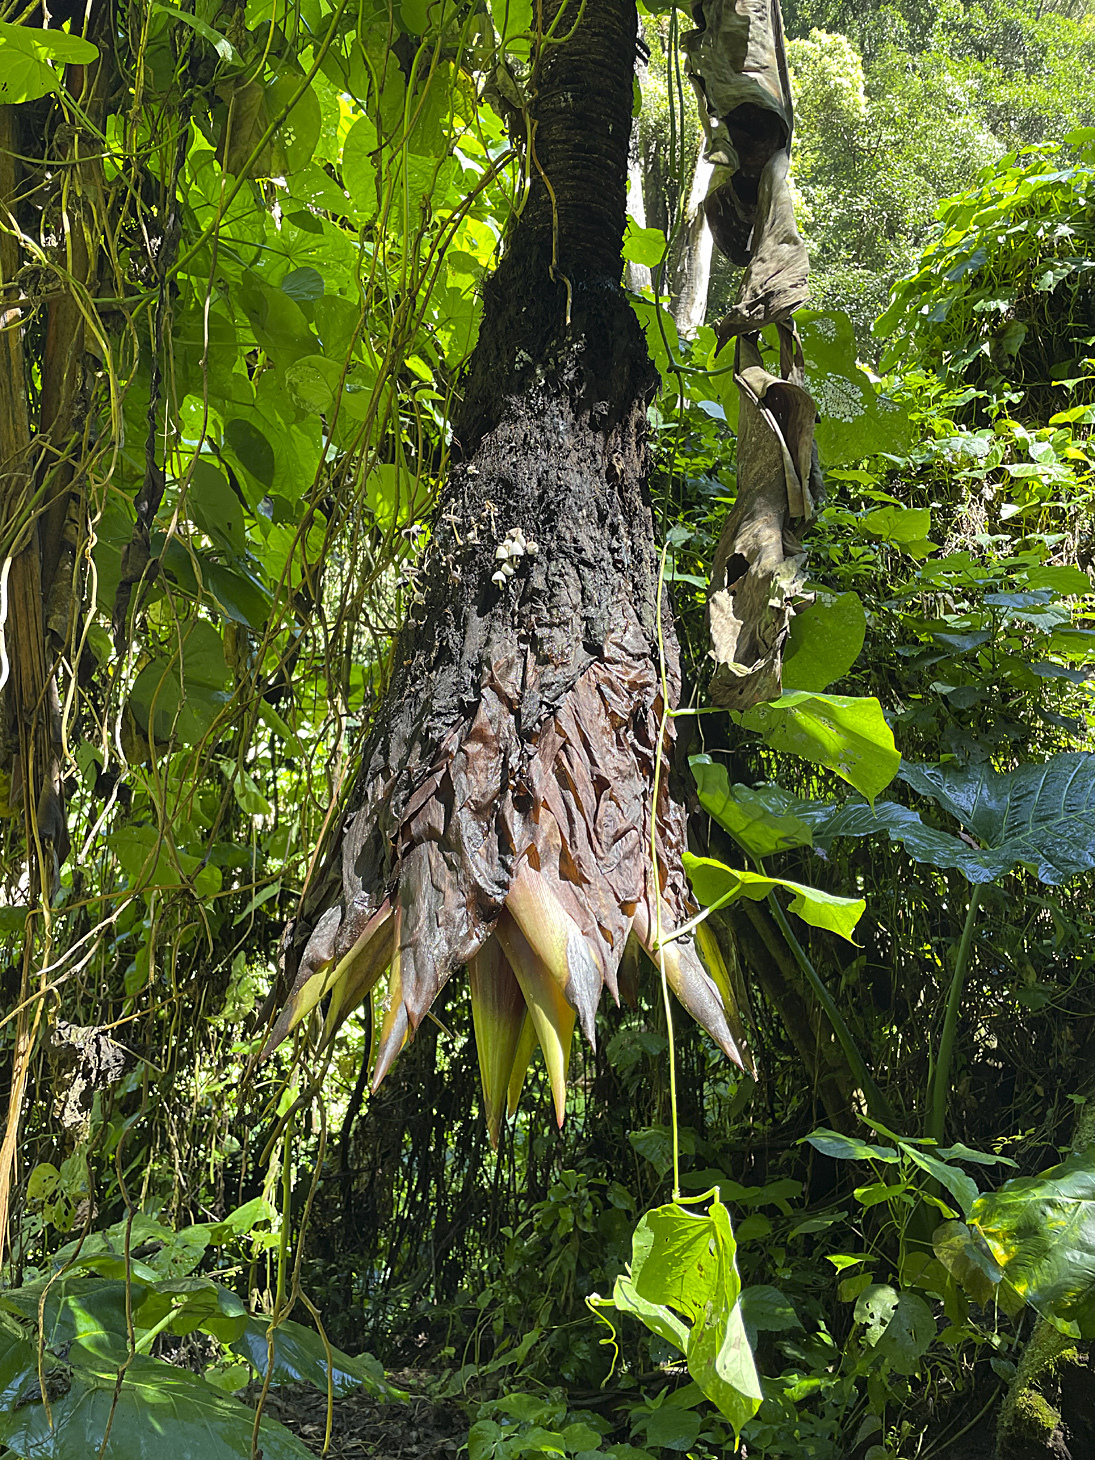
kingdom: Plantae
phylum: Tracheophyta
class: Liliopsida
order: Zingiberales
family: Musaceae
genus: Ensete
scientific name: Ensete ventricosum
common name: Abyssinian banana
